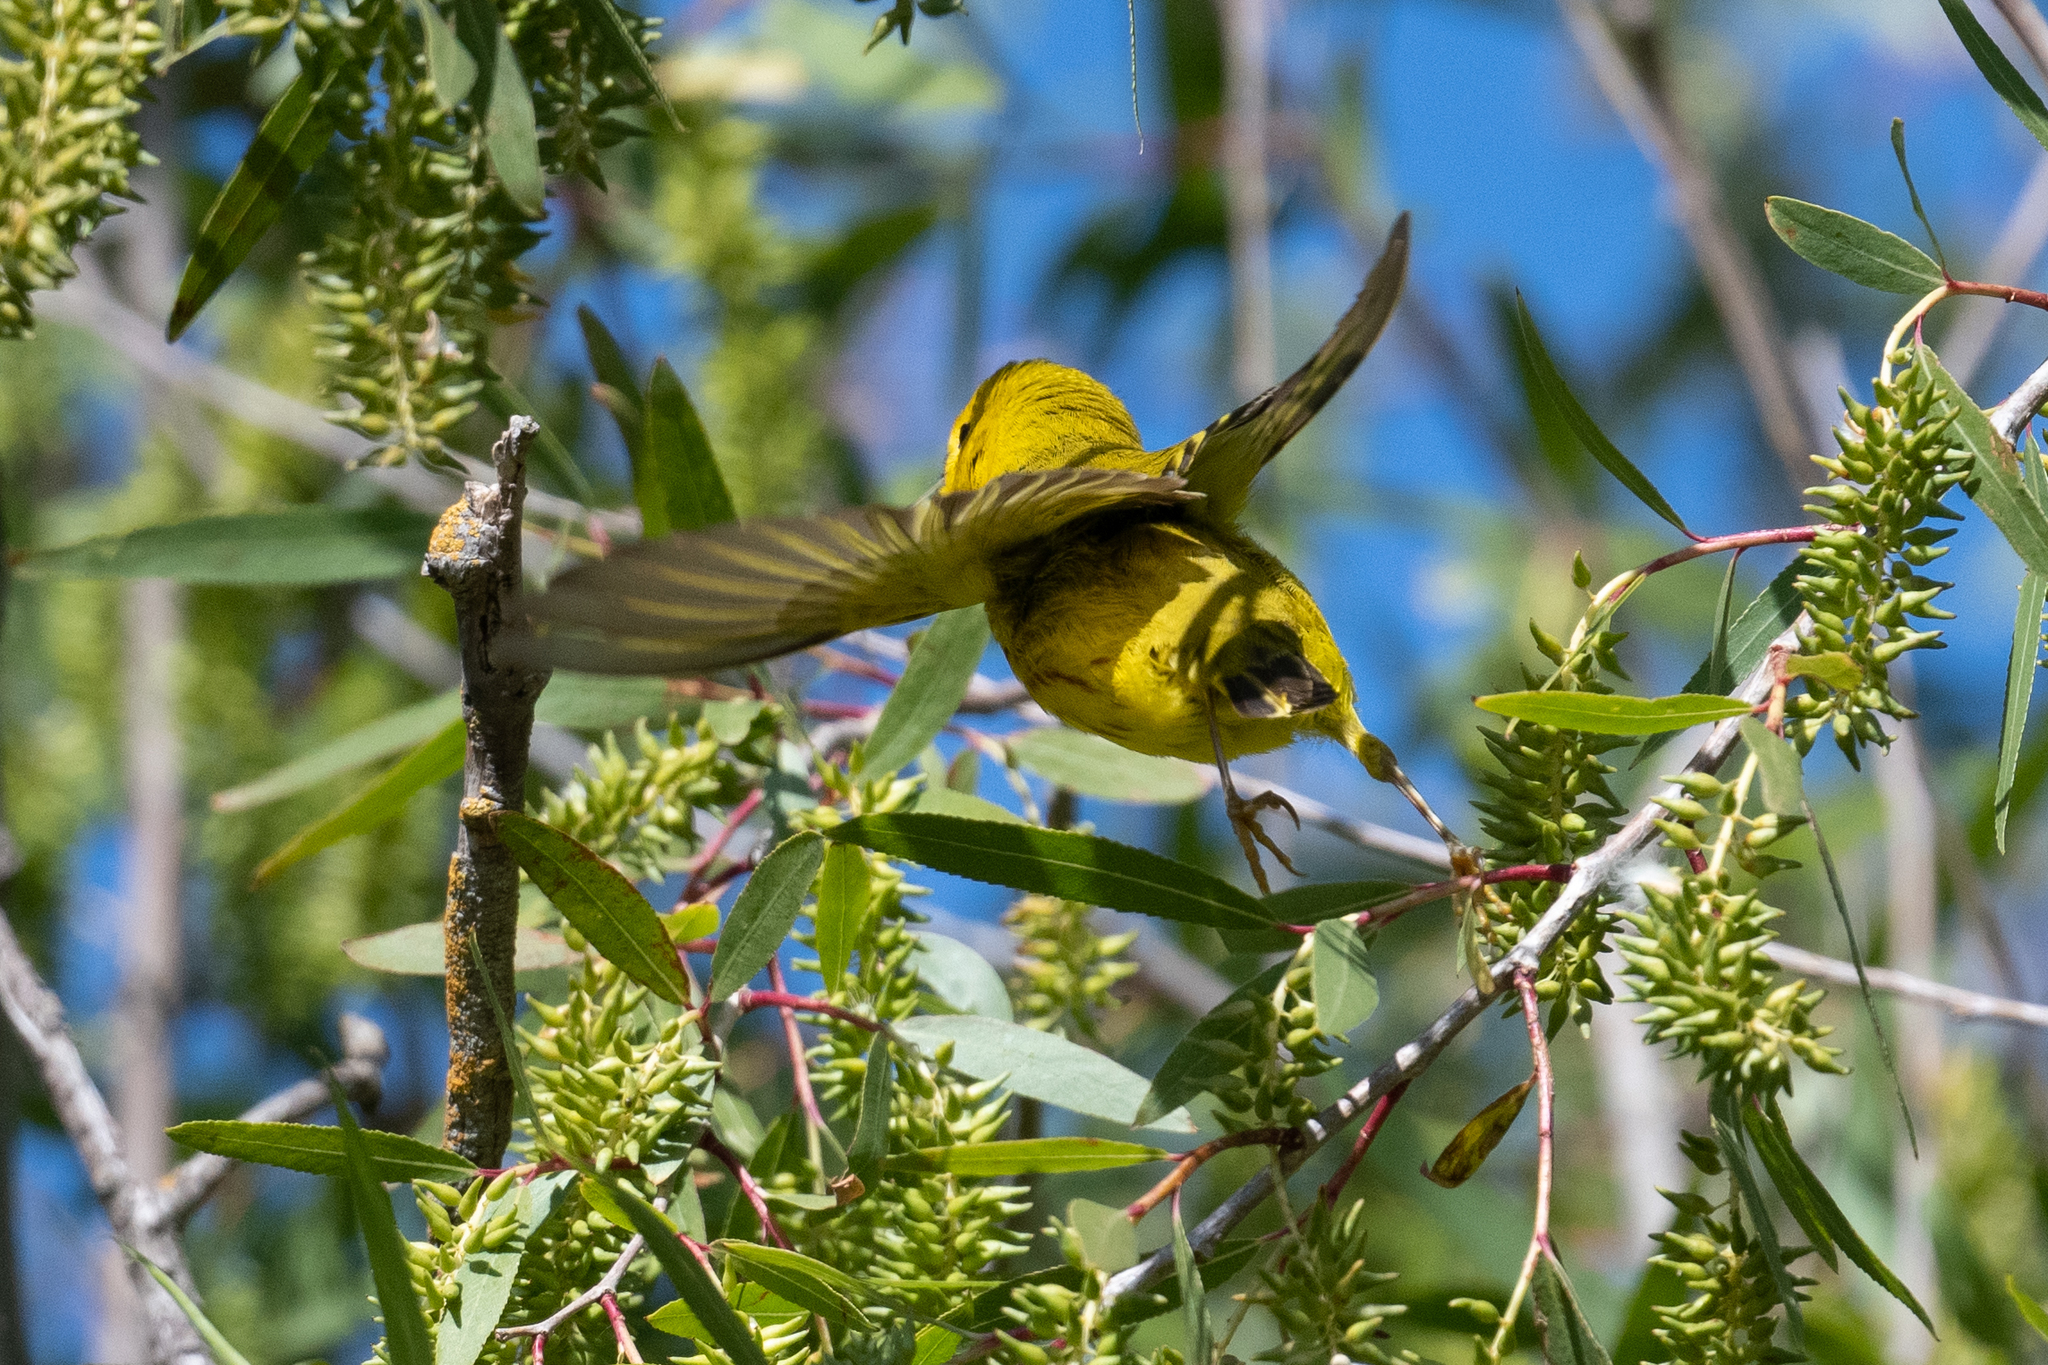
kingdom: Animalia
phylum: Chordata
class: Aves
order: Passeriformes
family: Parulidae
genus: Setophaga
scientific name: Setophaga petechia
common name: Yellow warbler
